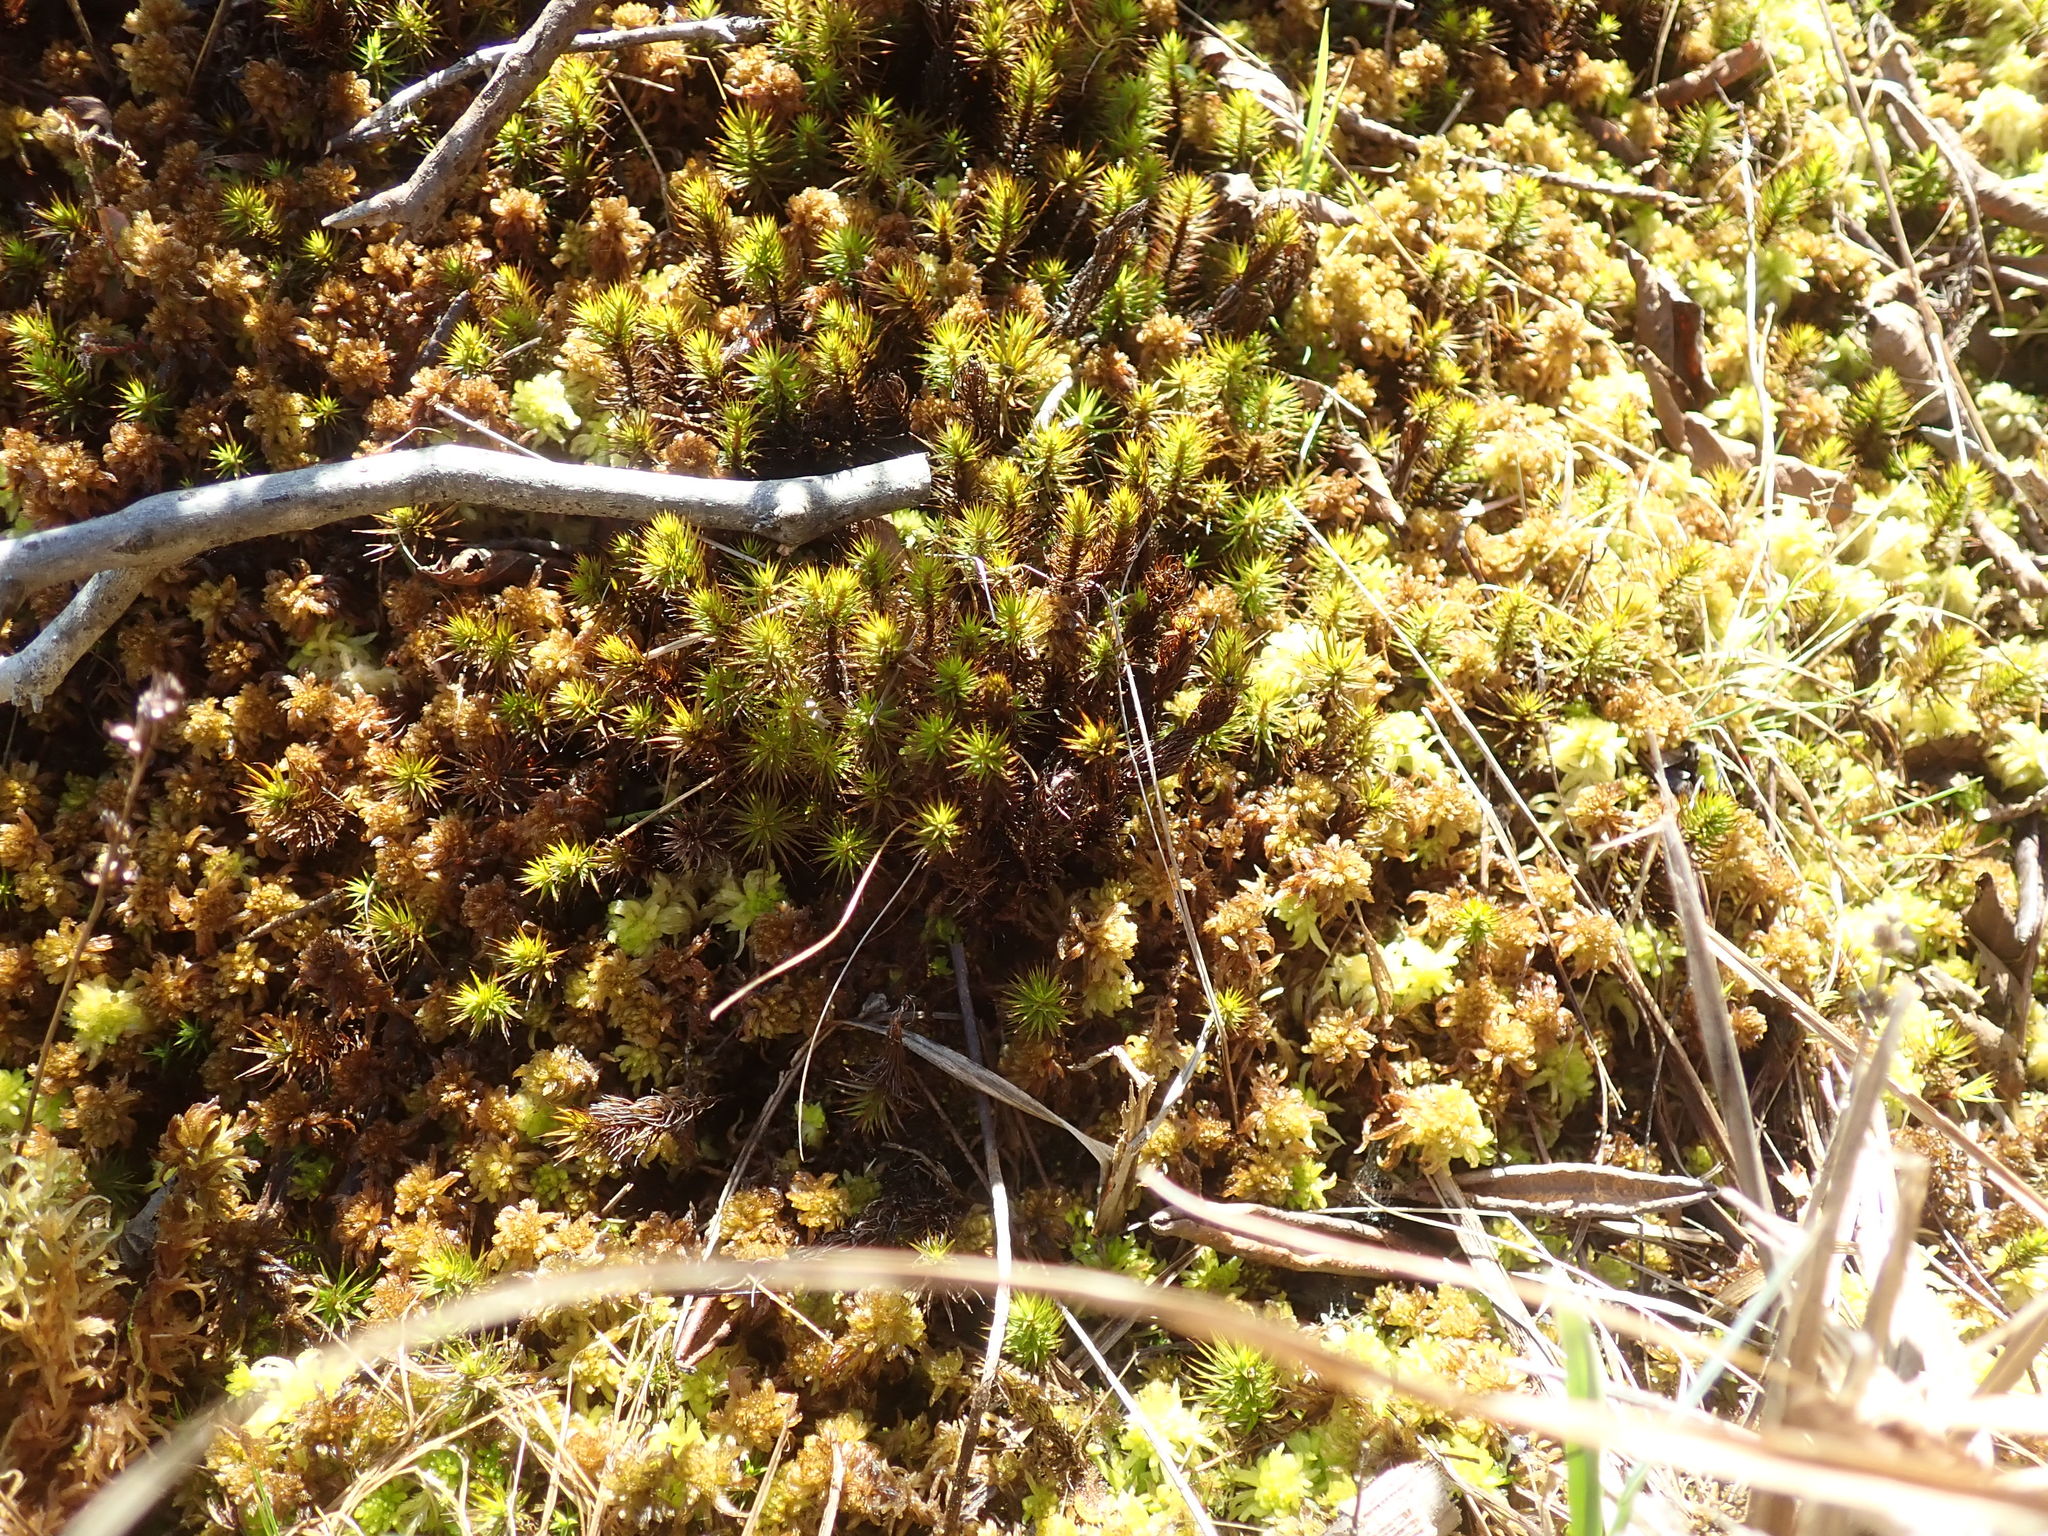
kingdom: Plantae
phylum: Bryophyta
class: Polytrichopsida
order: Polytrichales
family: Polytrichaceae
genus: Polytrichum
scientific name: Polytrichum commune
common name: Common haircap
